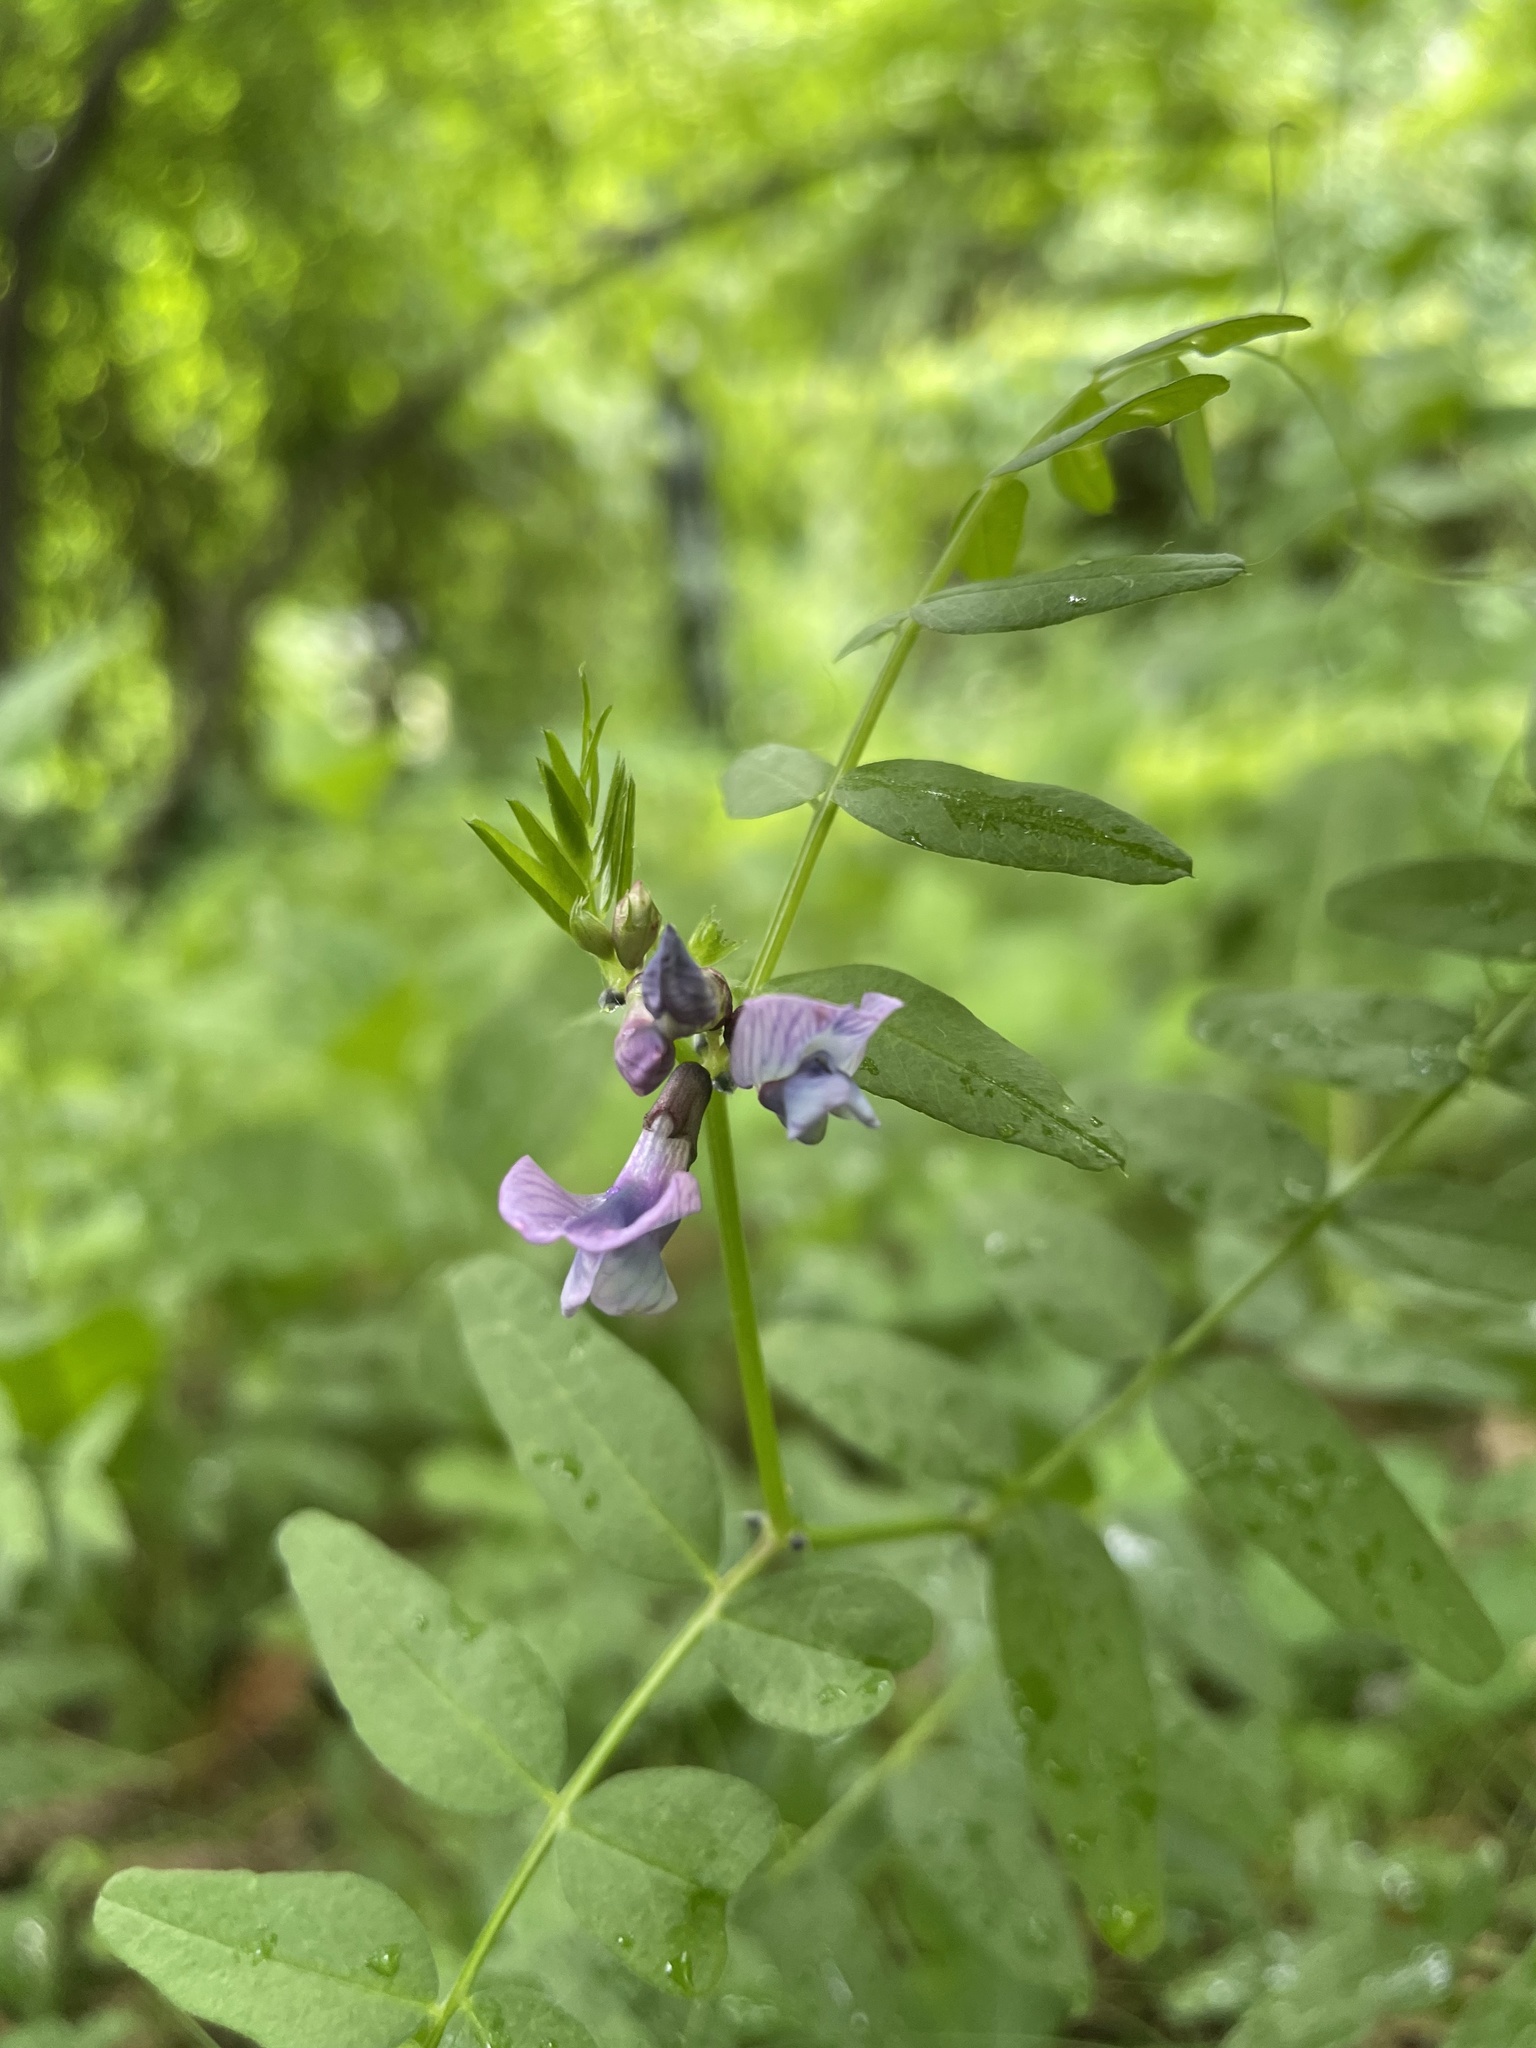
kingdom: Plantae
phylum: Tracheophyta
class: Magnoliopsida
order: Fabales
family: Fabaceae
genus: Vicia
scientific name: Vicia sepium
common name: Bush vetch
